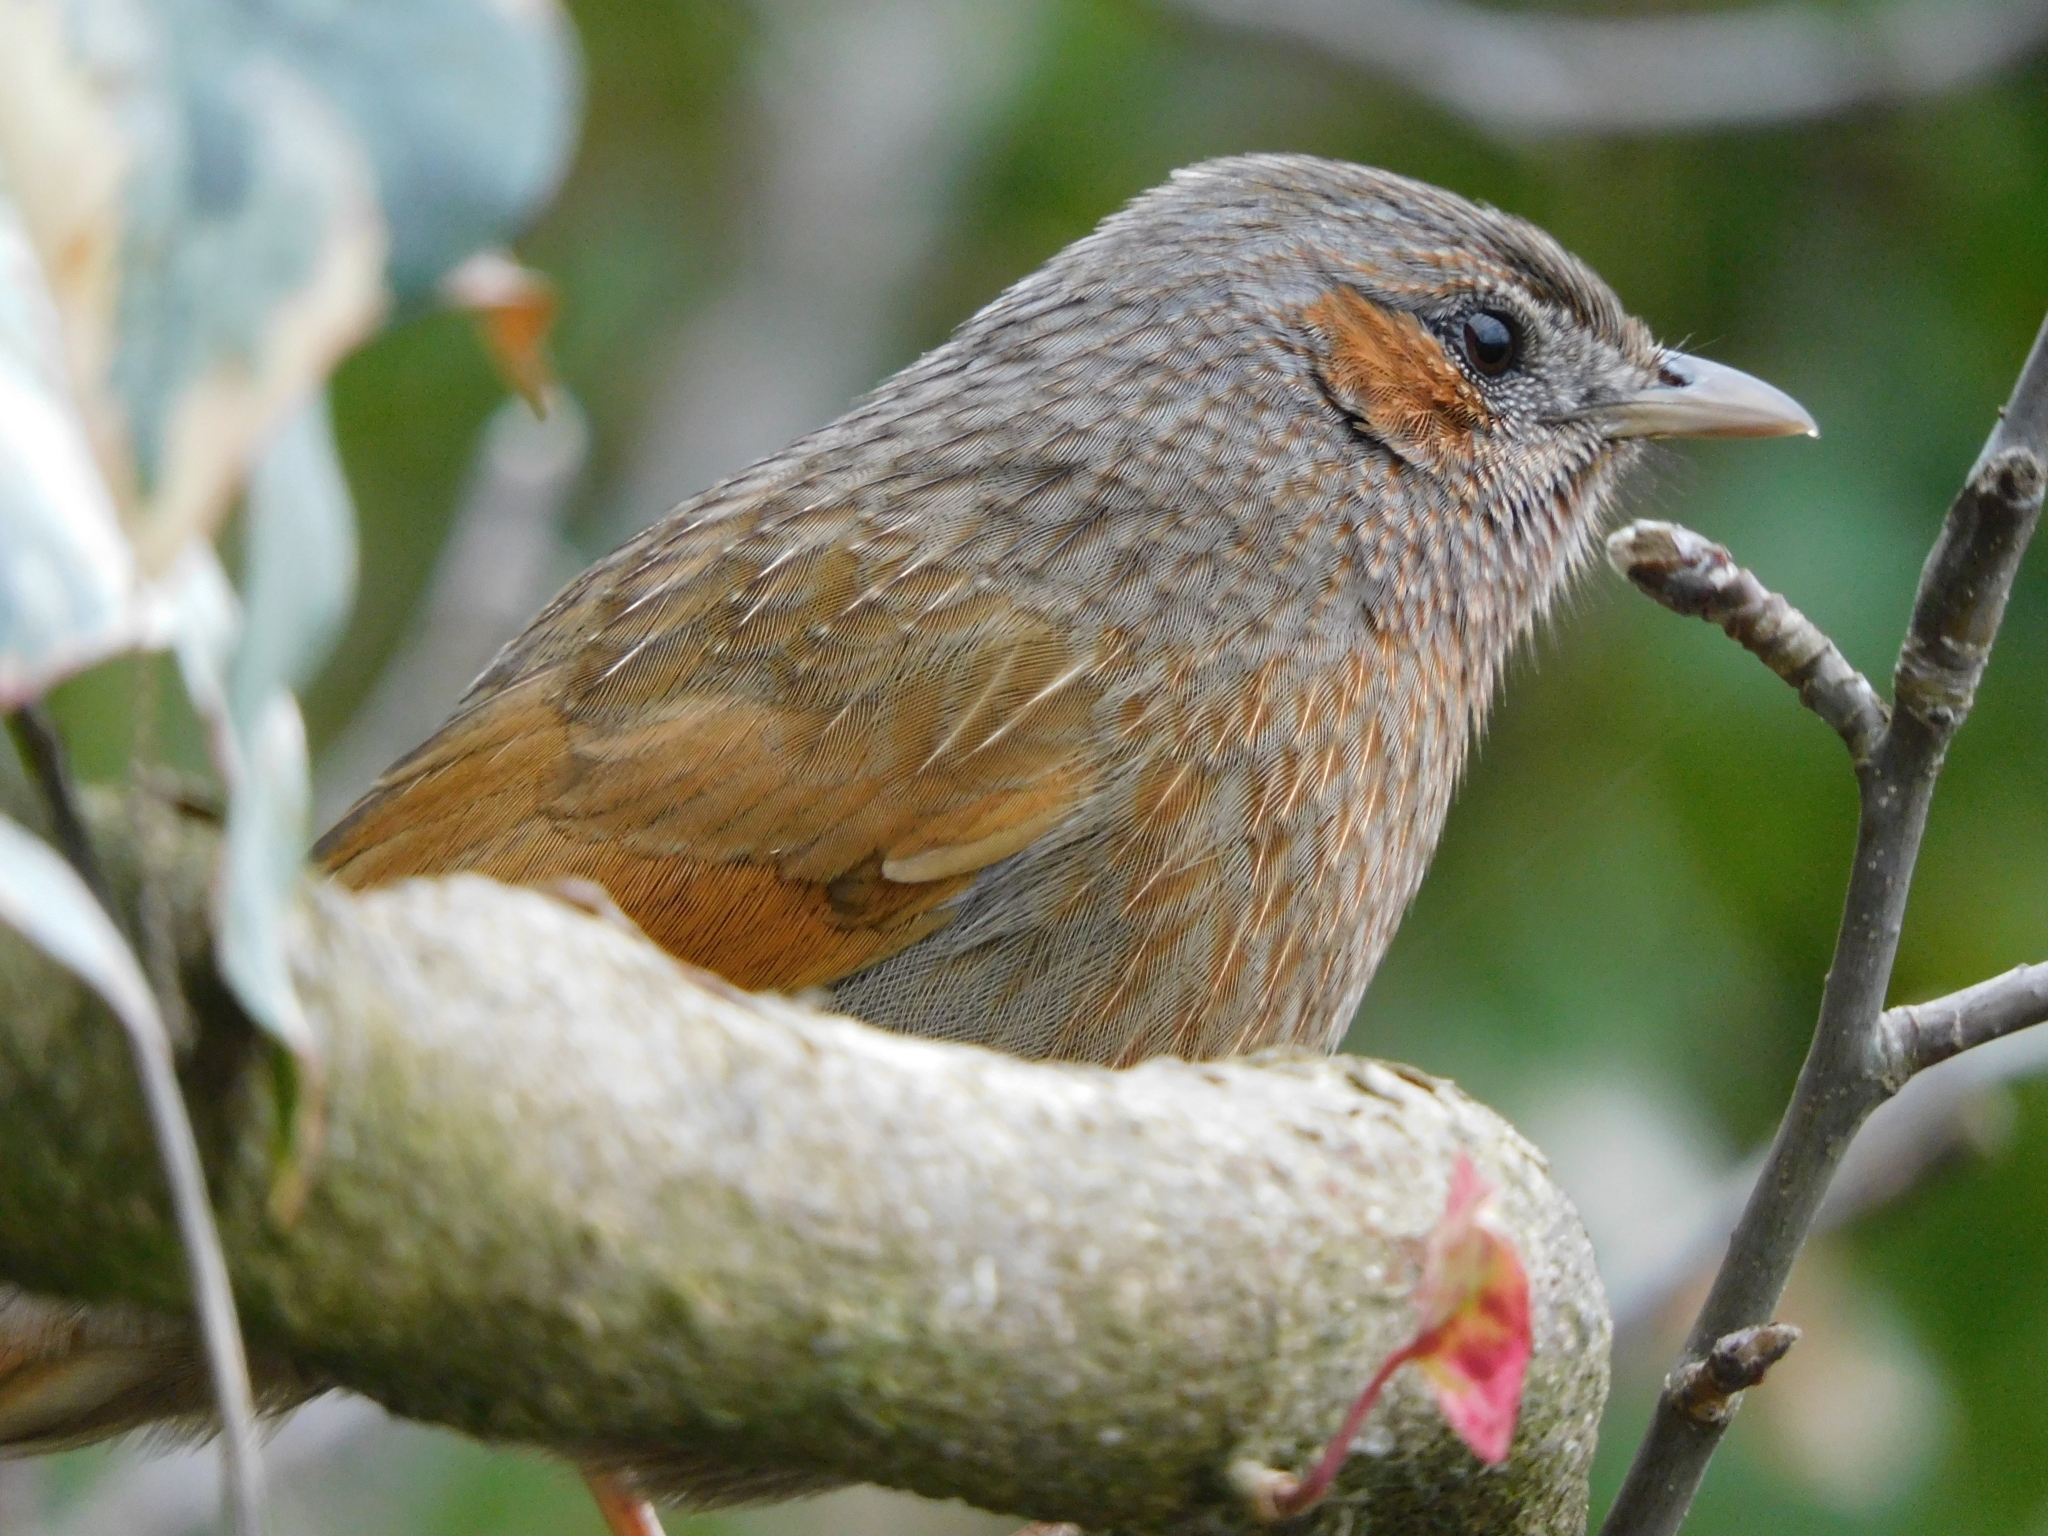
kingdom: Animalia
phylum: Chordata
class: Aves
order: Passeriformes
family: Leiothrichidae
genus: Trochalopteron
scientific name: Trochalopteron lineatum
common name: Streaked laughingthrush
